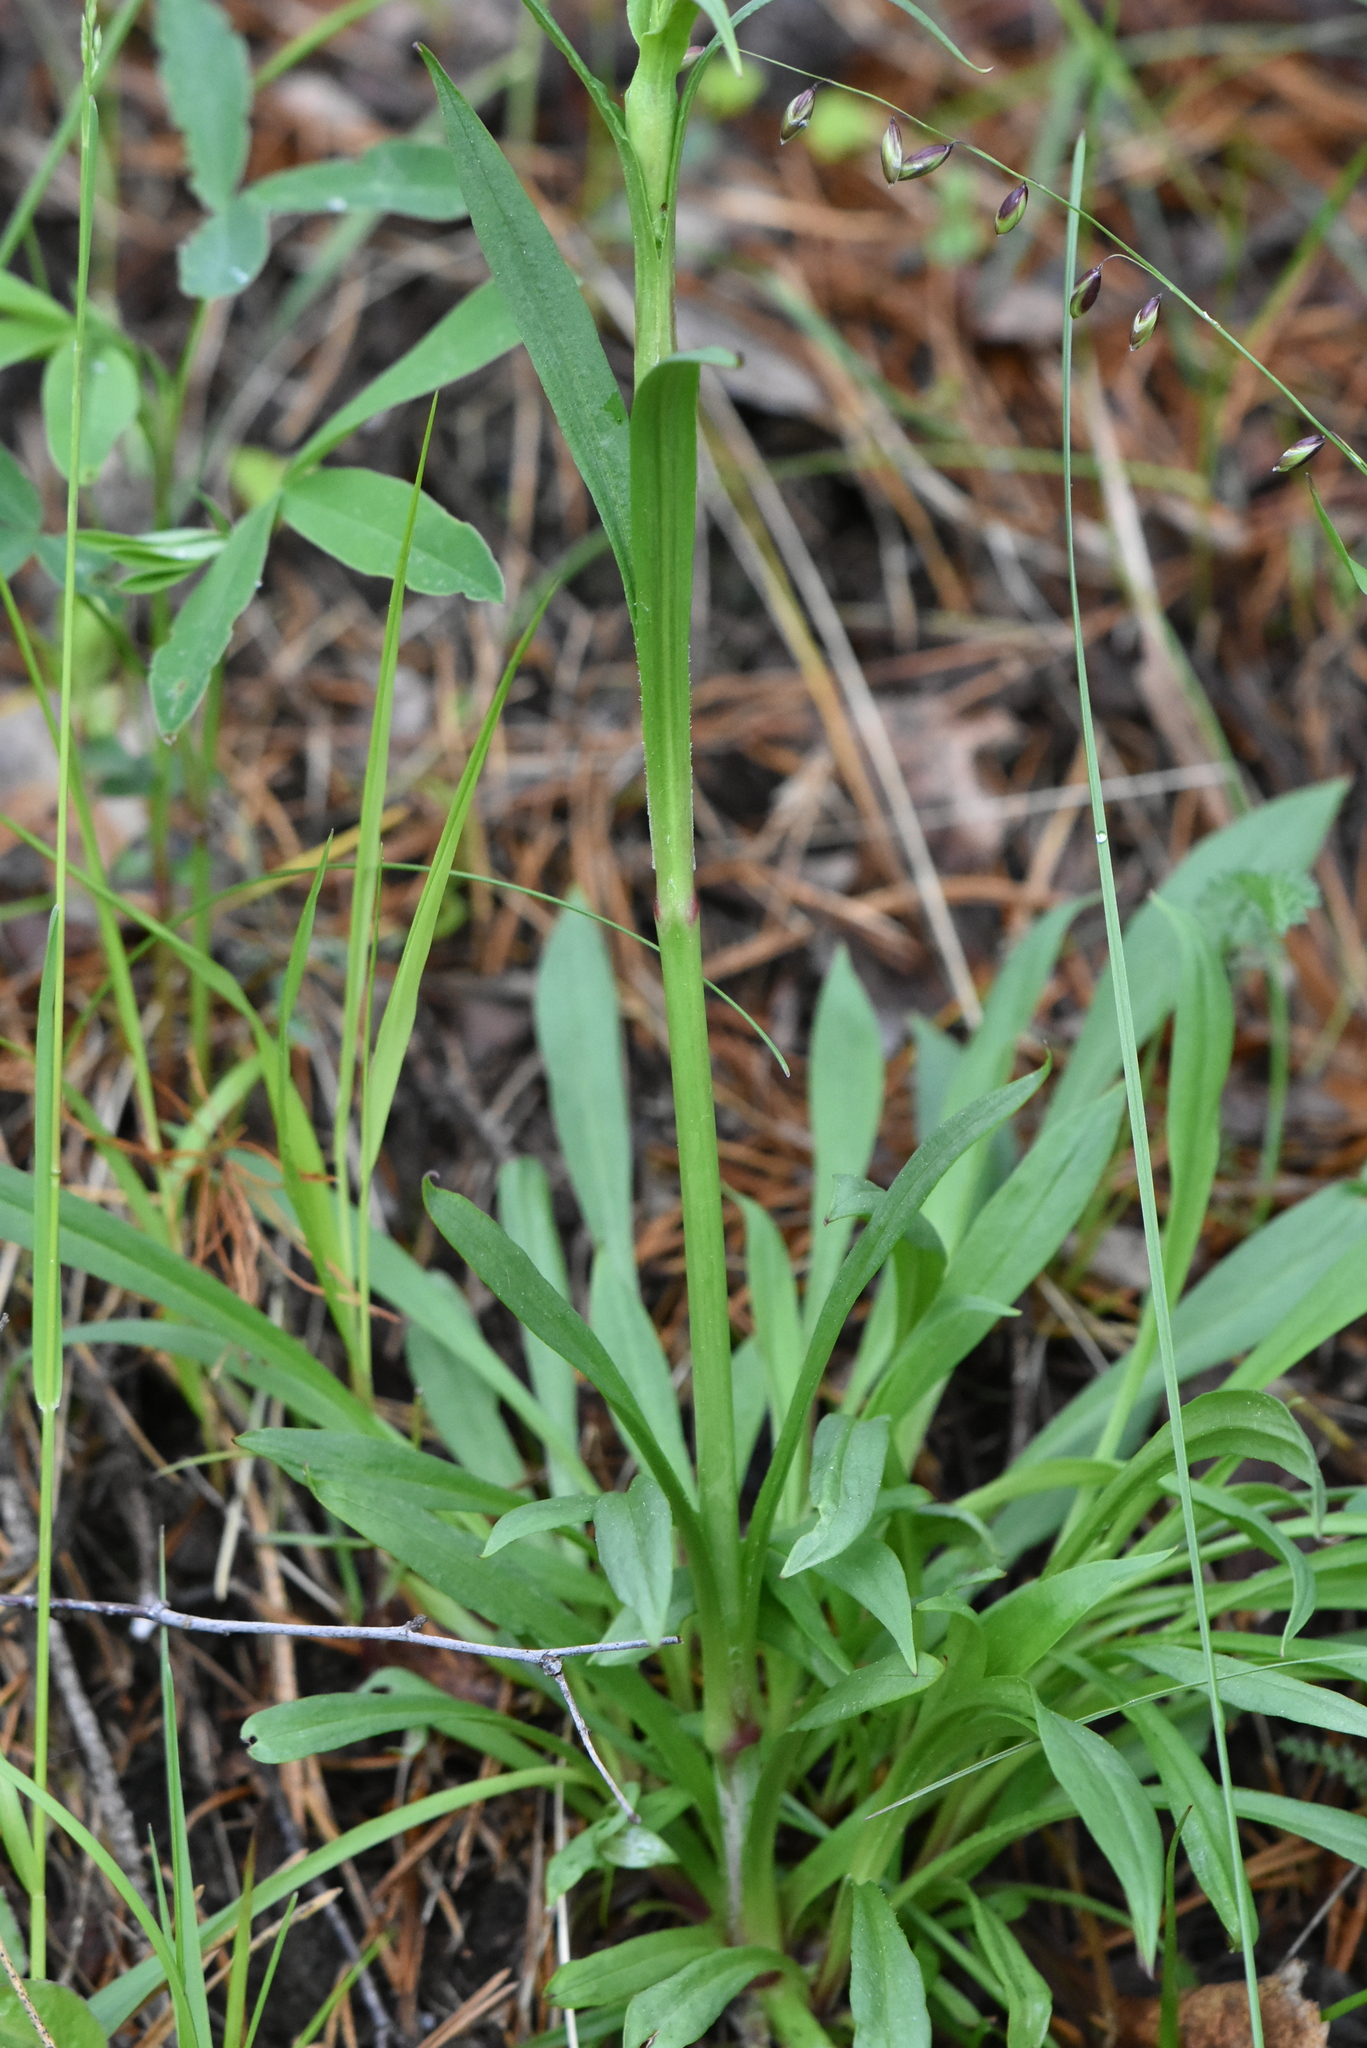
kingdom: Plantae
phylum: Tracheophyta
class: Magnoliopsida
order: Caryophyllales
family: Caryophyllaceae
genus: Viscaria
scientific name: Viscaria vulgaris
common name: Clammy campion
